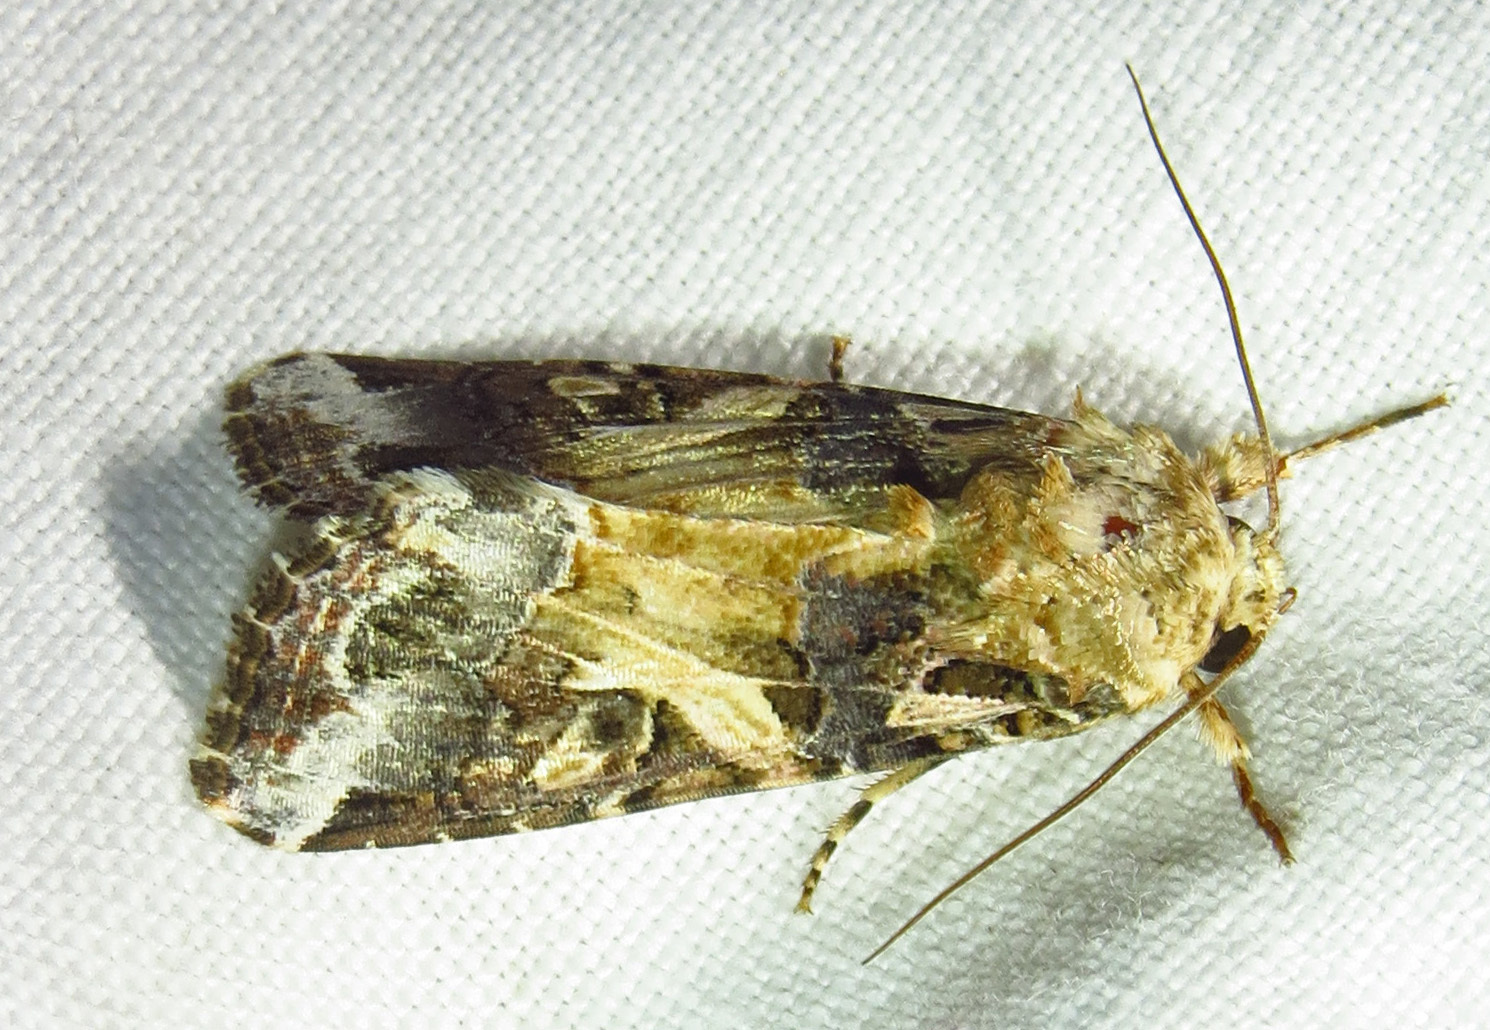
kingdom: Animalia
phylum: Arthropoda
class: Insecta
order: Lepidoptera
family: Noctuidae
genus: Spodoptera
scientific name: Spodoptera ornithogalli
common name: Yellow-striped armyworm
